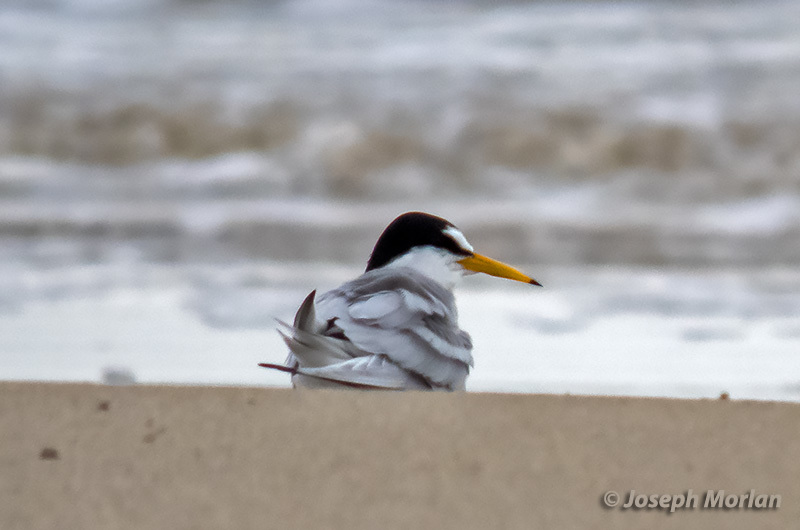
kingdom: Animalia
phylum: Chordata
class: Aves
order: Charadriiformes
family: Laridae
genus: Sternula
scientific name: Sternula antillarum
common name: Least tern
